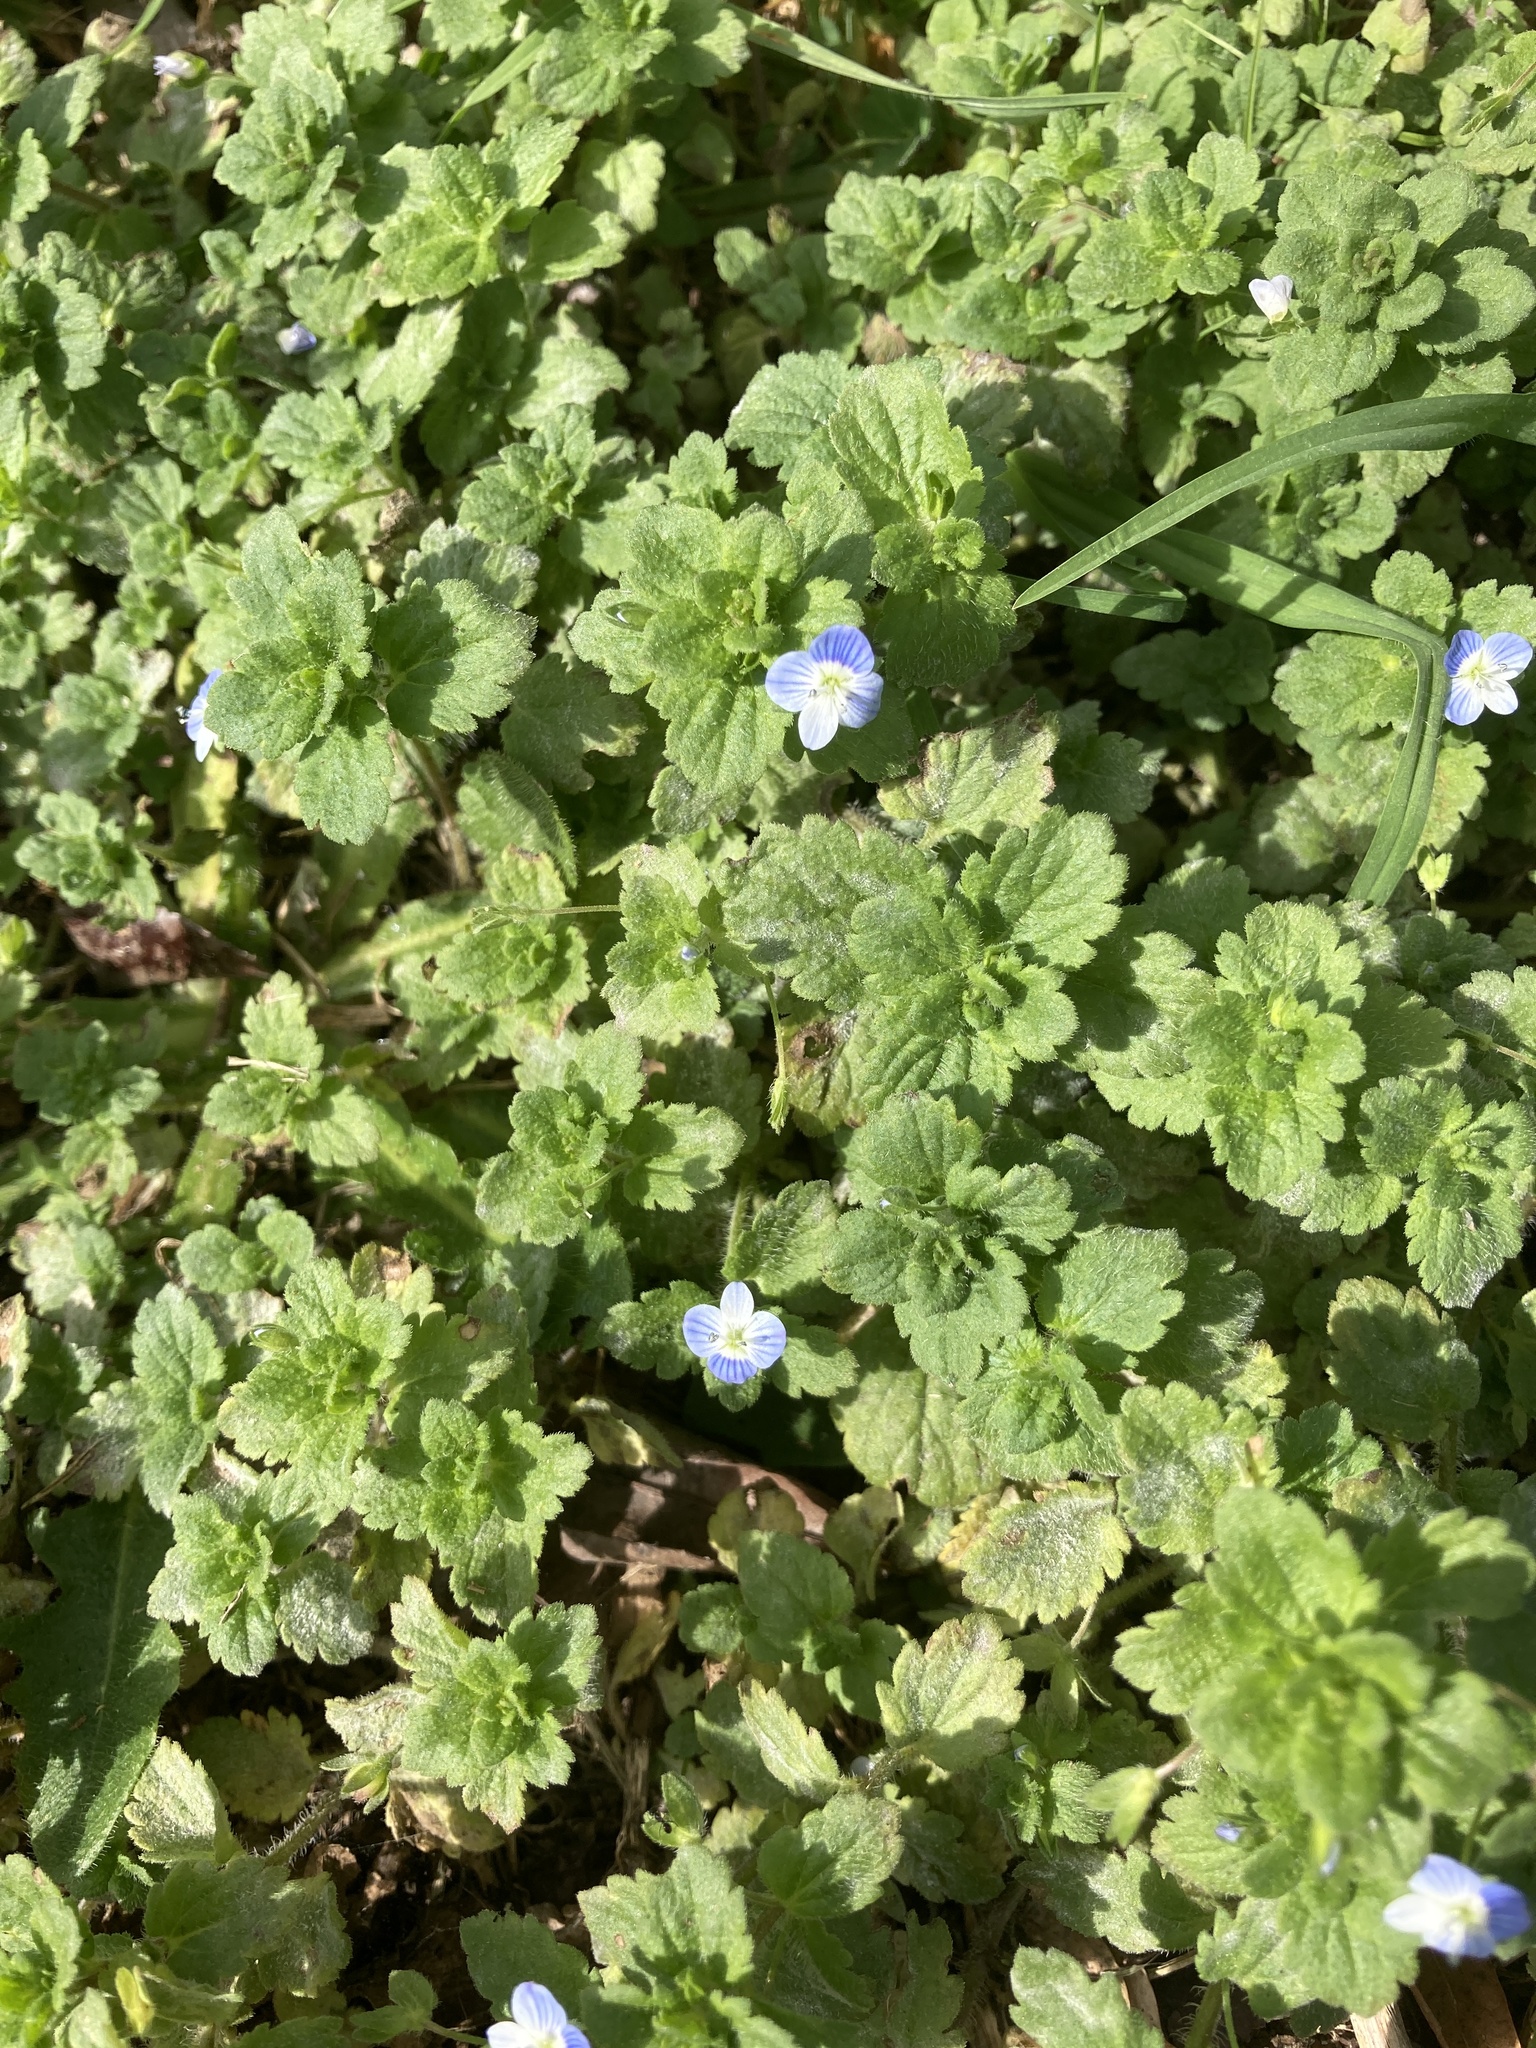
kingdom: Plantae
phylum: Tracheophyta
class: Magnoliopsida
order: Lamiales
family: Plantaginaceae
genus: Veronica
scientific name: Veronica persica
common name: Common field-speedwell
